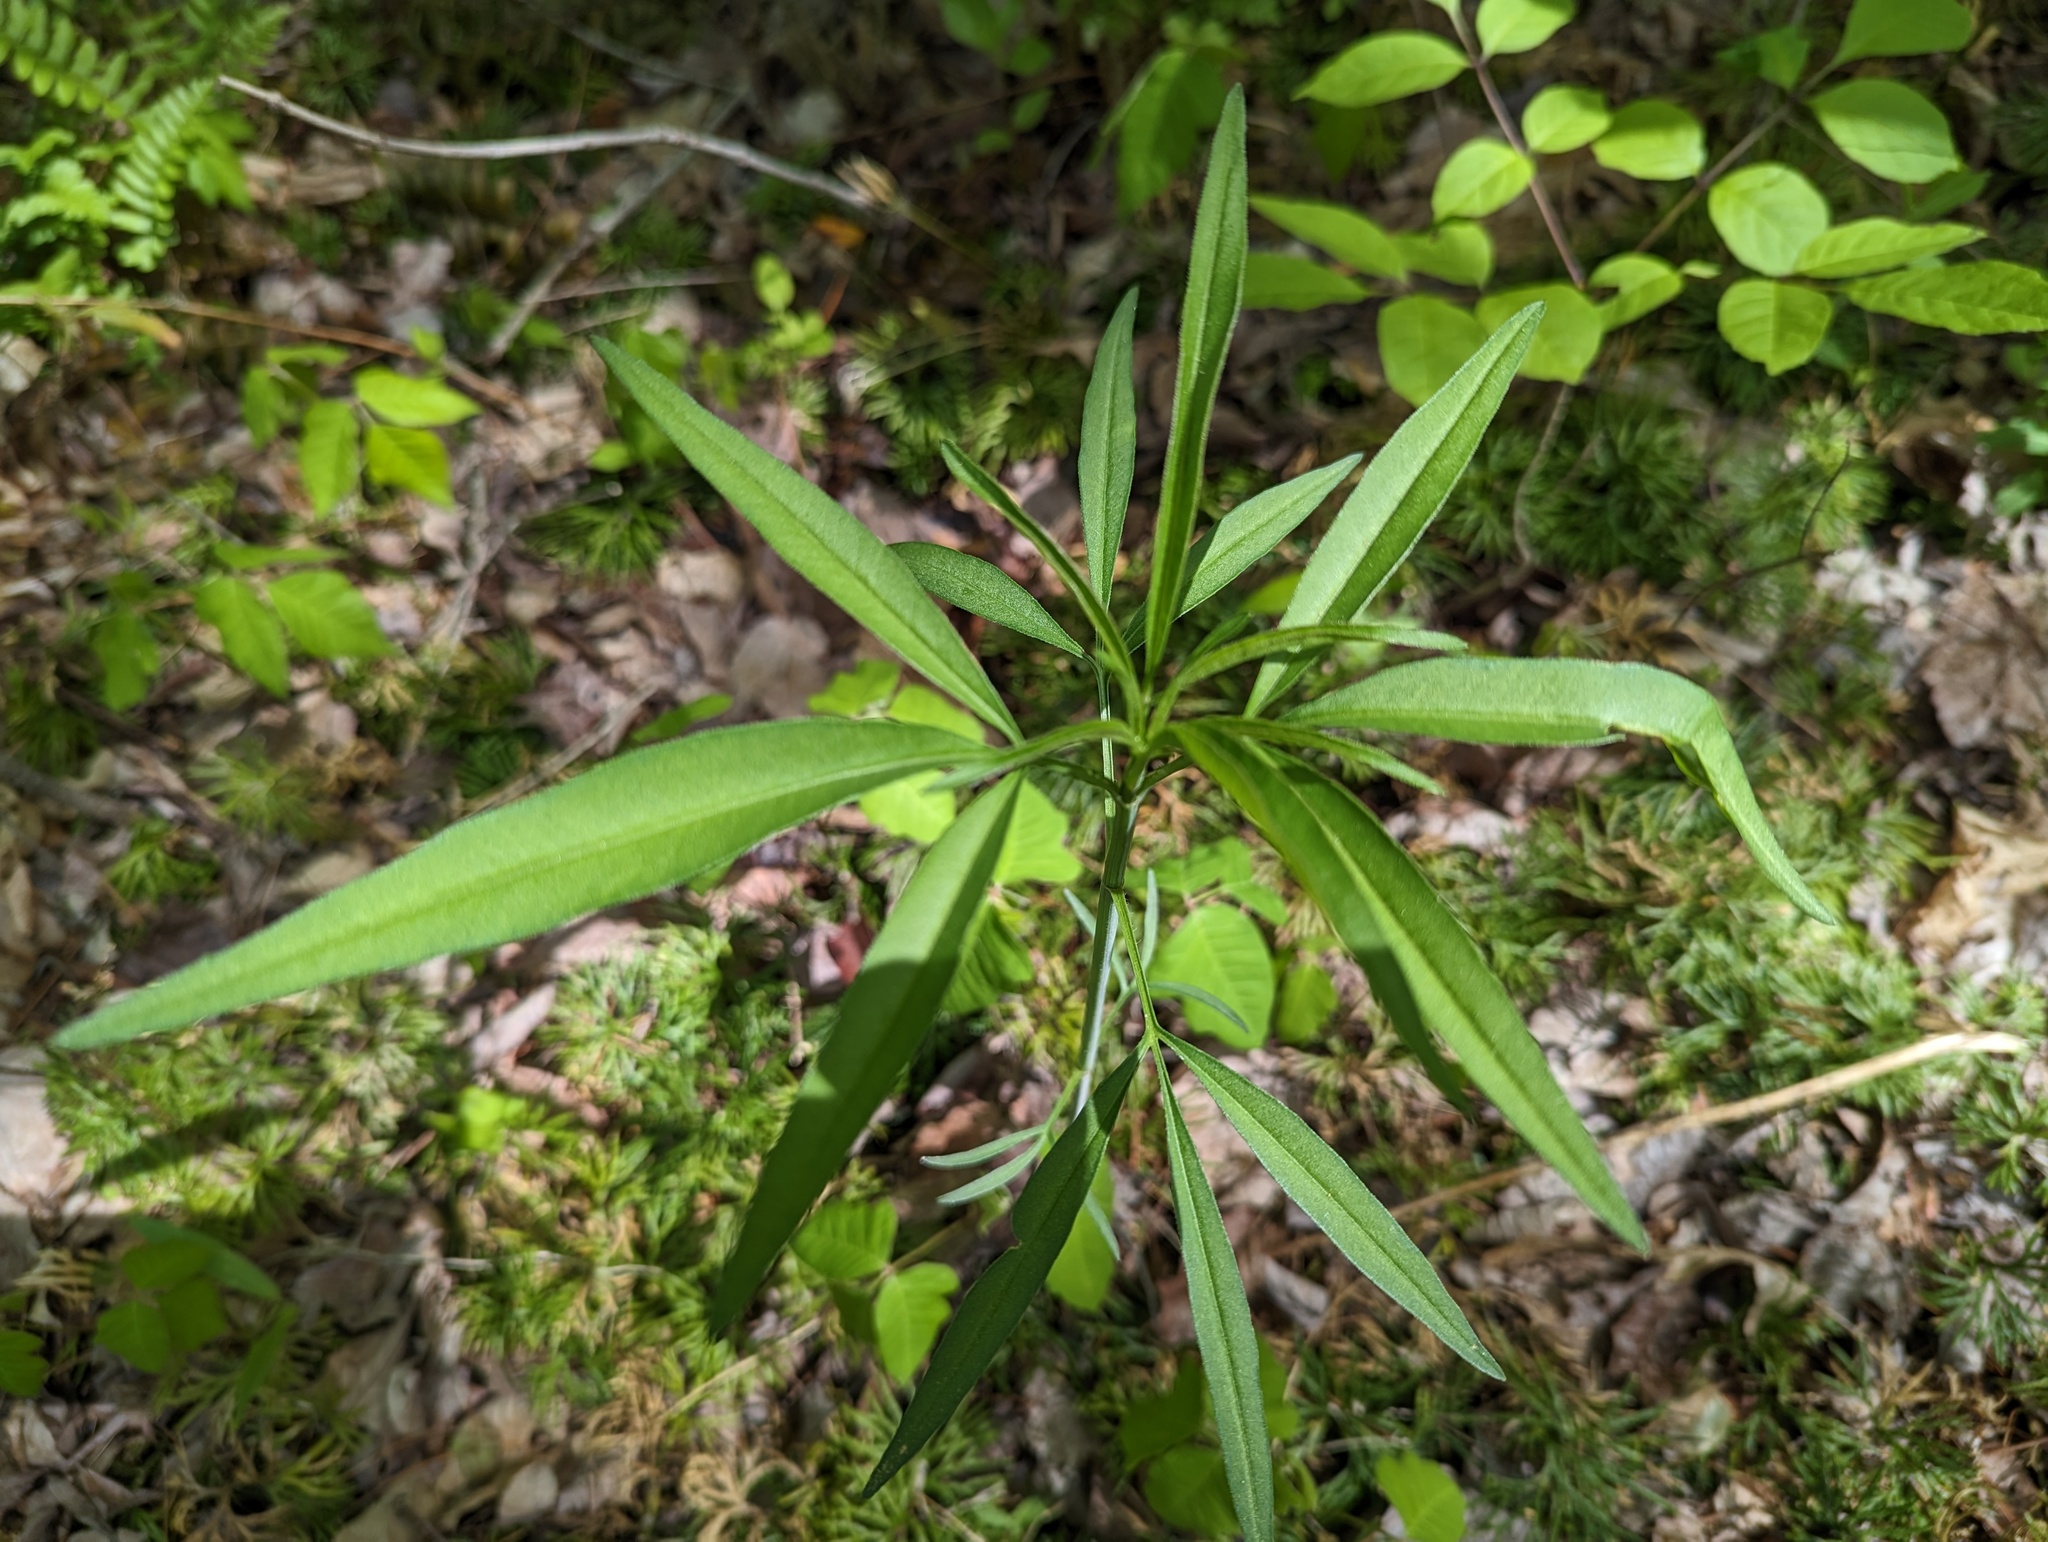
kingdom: Plantae
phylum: Tracheophyta
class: Magnoliopsida
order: Asterales
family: Asteraceae
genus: Coreopsis
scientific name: Coreopsis tripteris
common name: Tall coreopsis
